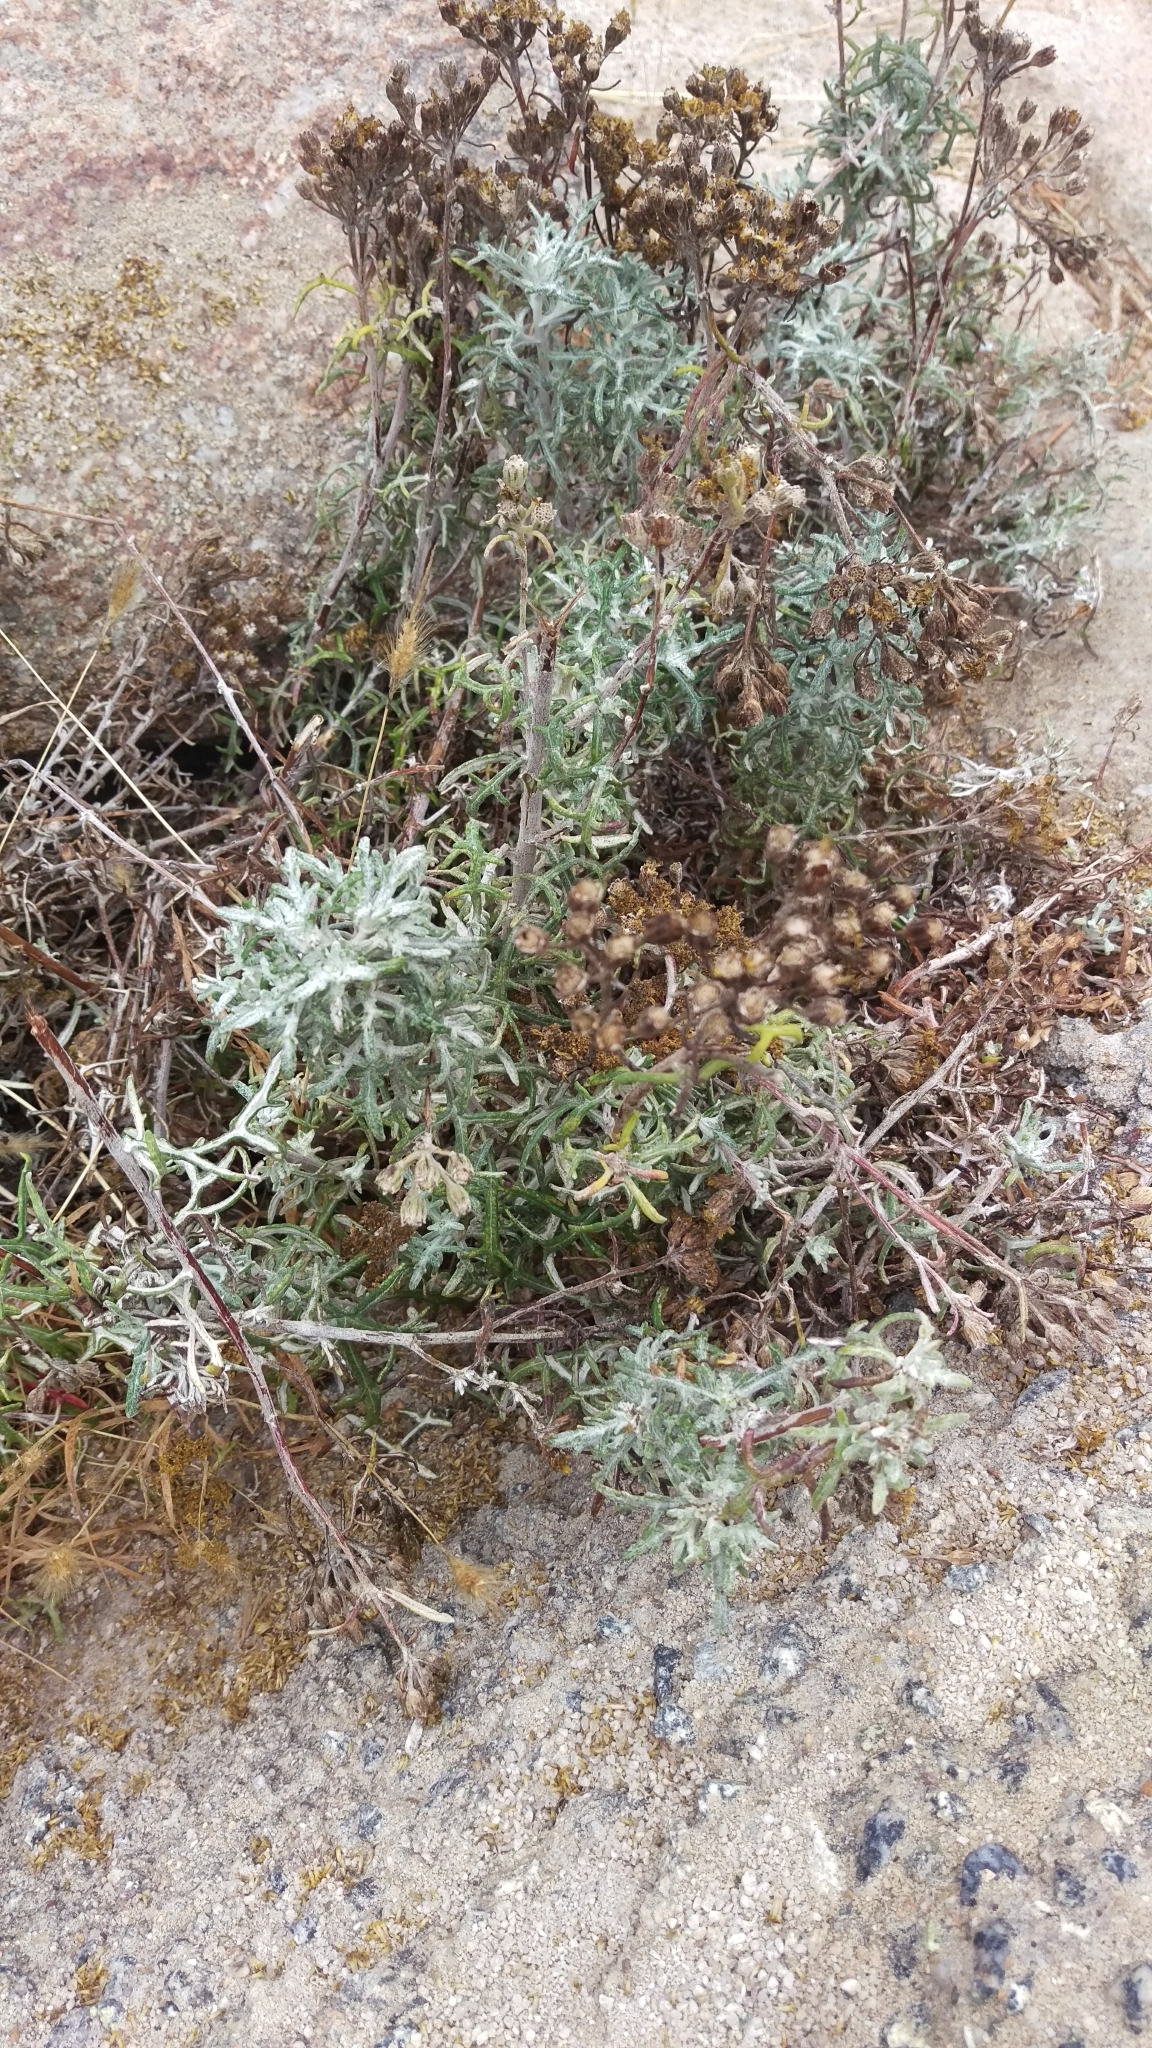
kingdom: Plantae
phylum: Tracheophyta
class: Magnoliopsida
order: Asterales
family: Asteraceae
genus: Eriophyllum
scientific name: Eriophyllum staechadifolium
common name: Lizardtail
